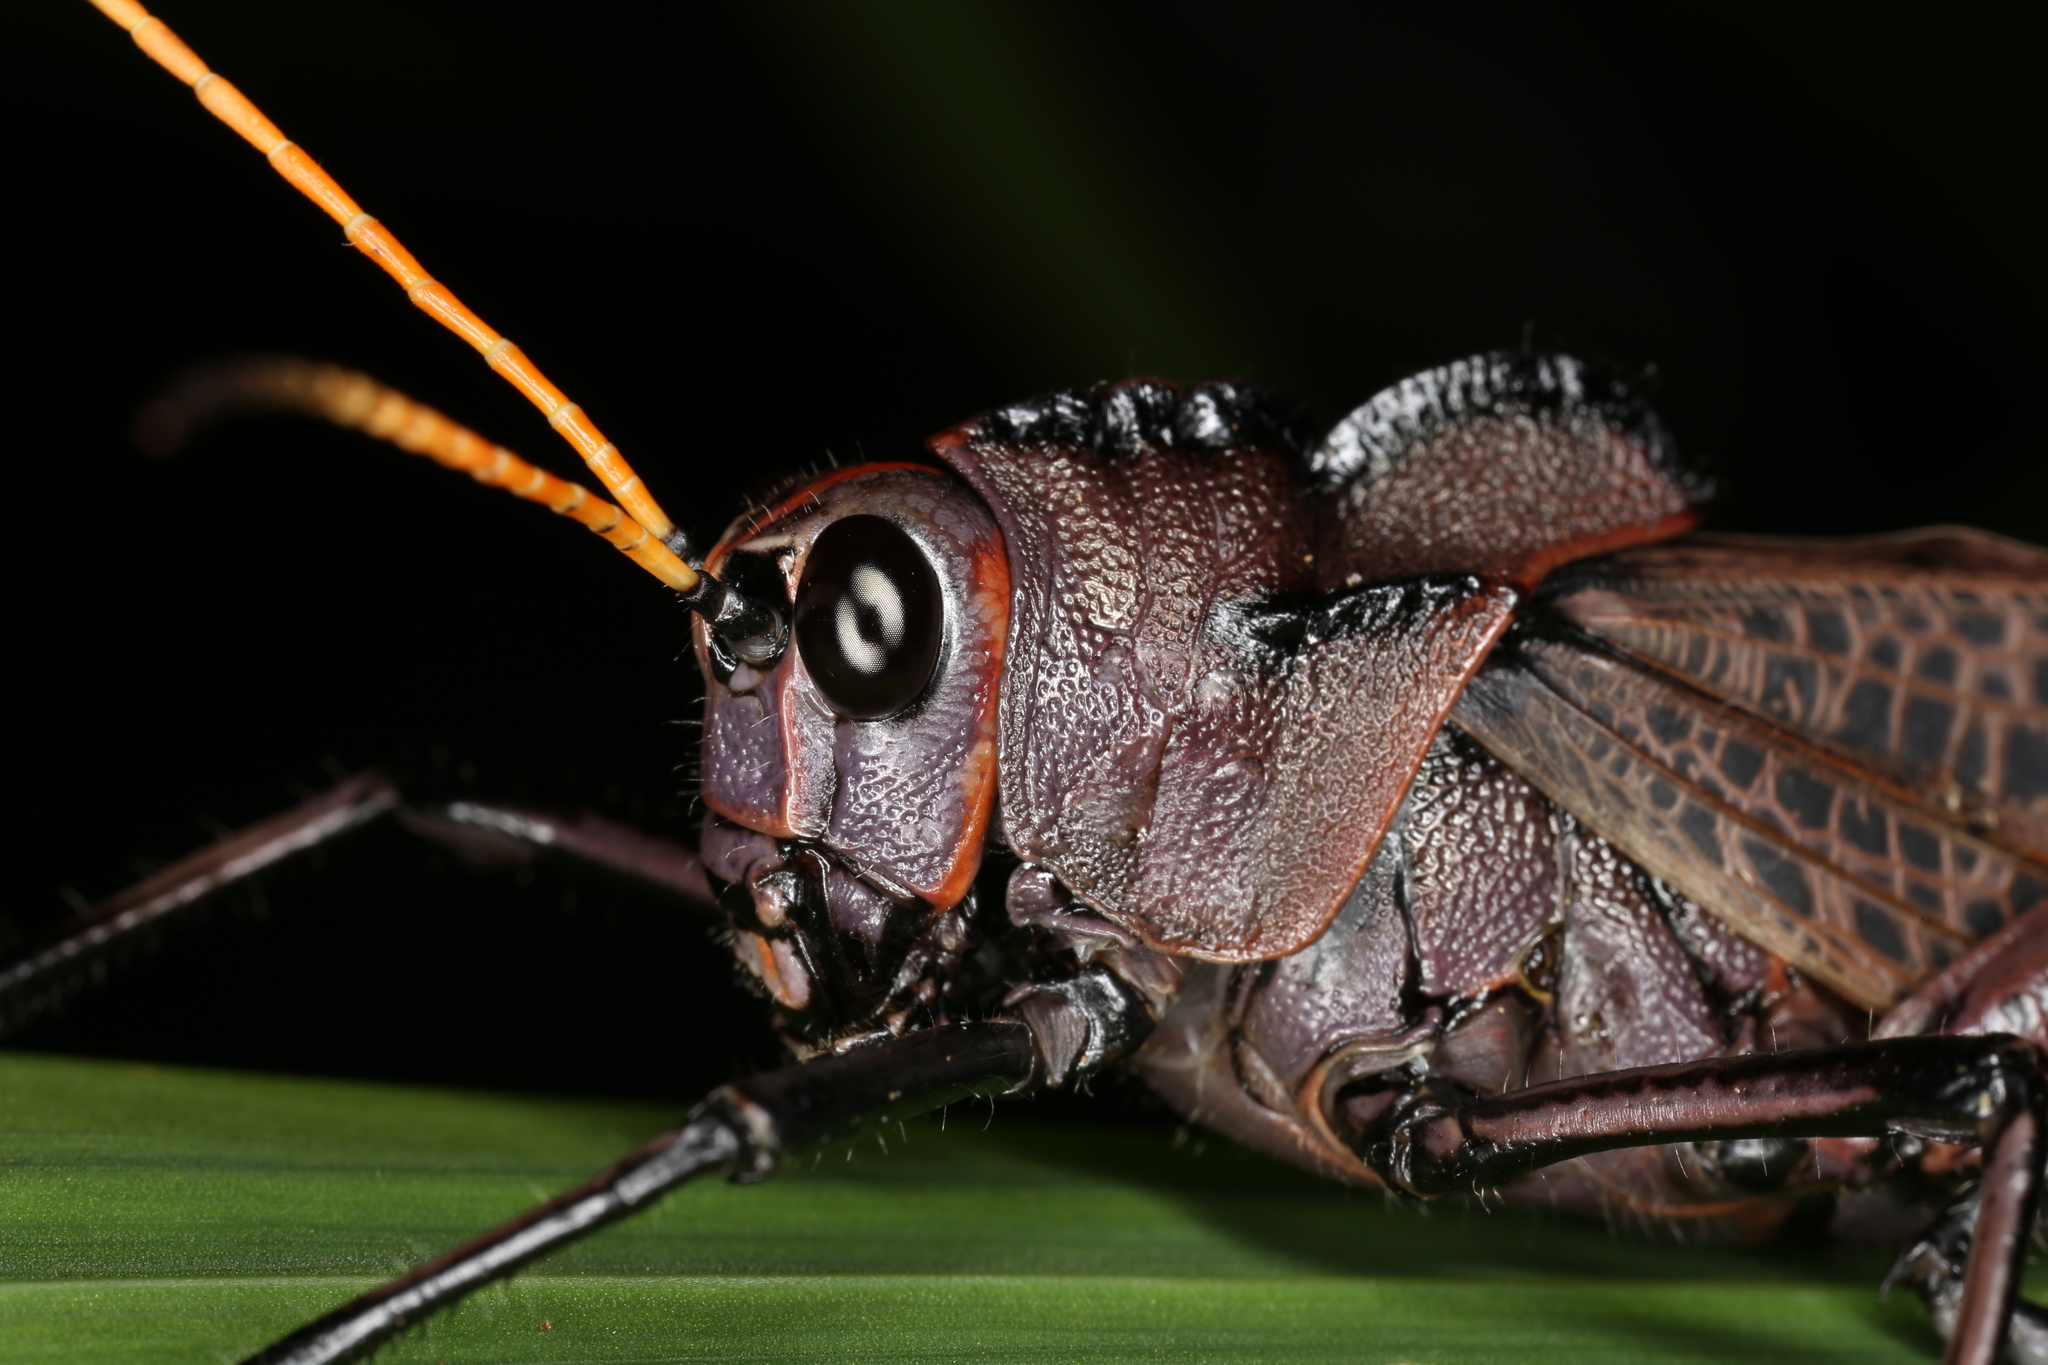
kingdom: Animalia
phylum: Arthropoda
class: Insecta
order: Orthoptera
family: Romaleidae
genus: Romalea
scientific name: Romalea
